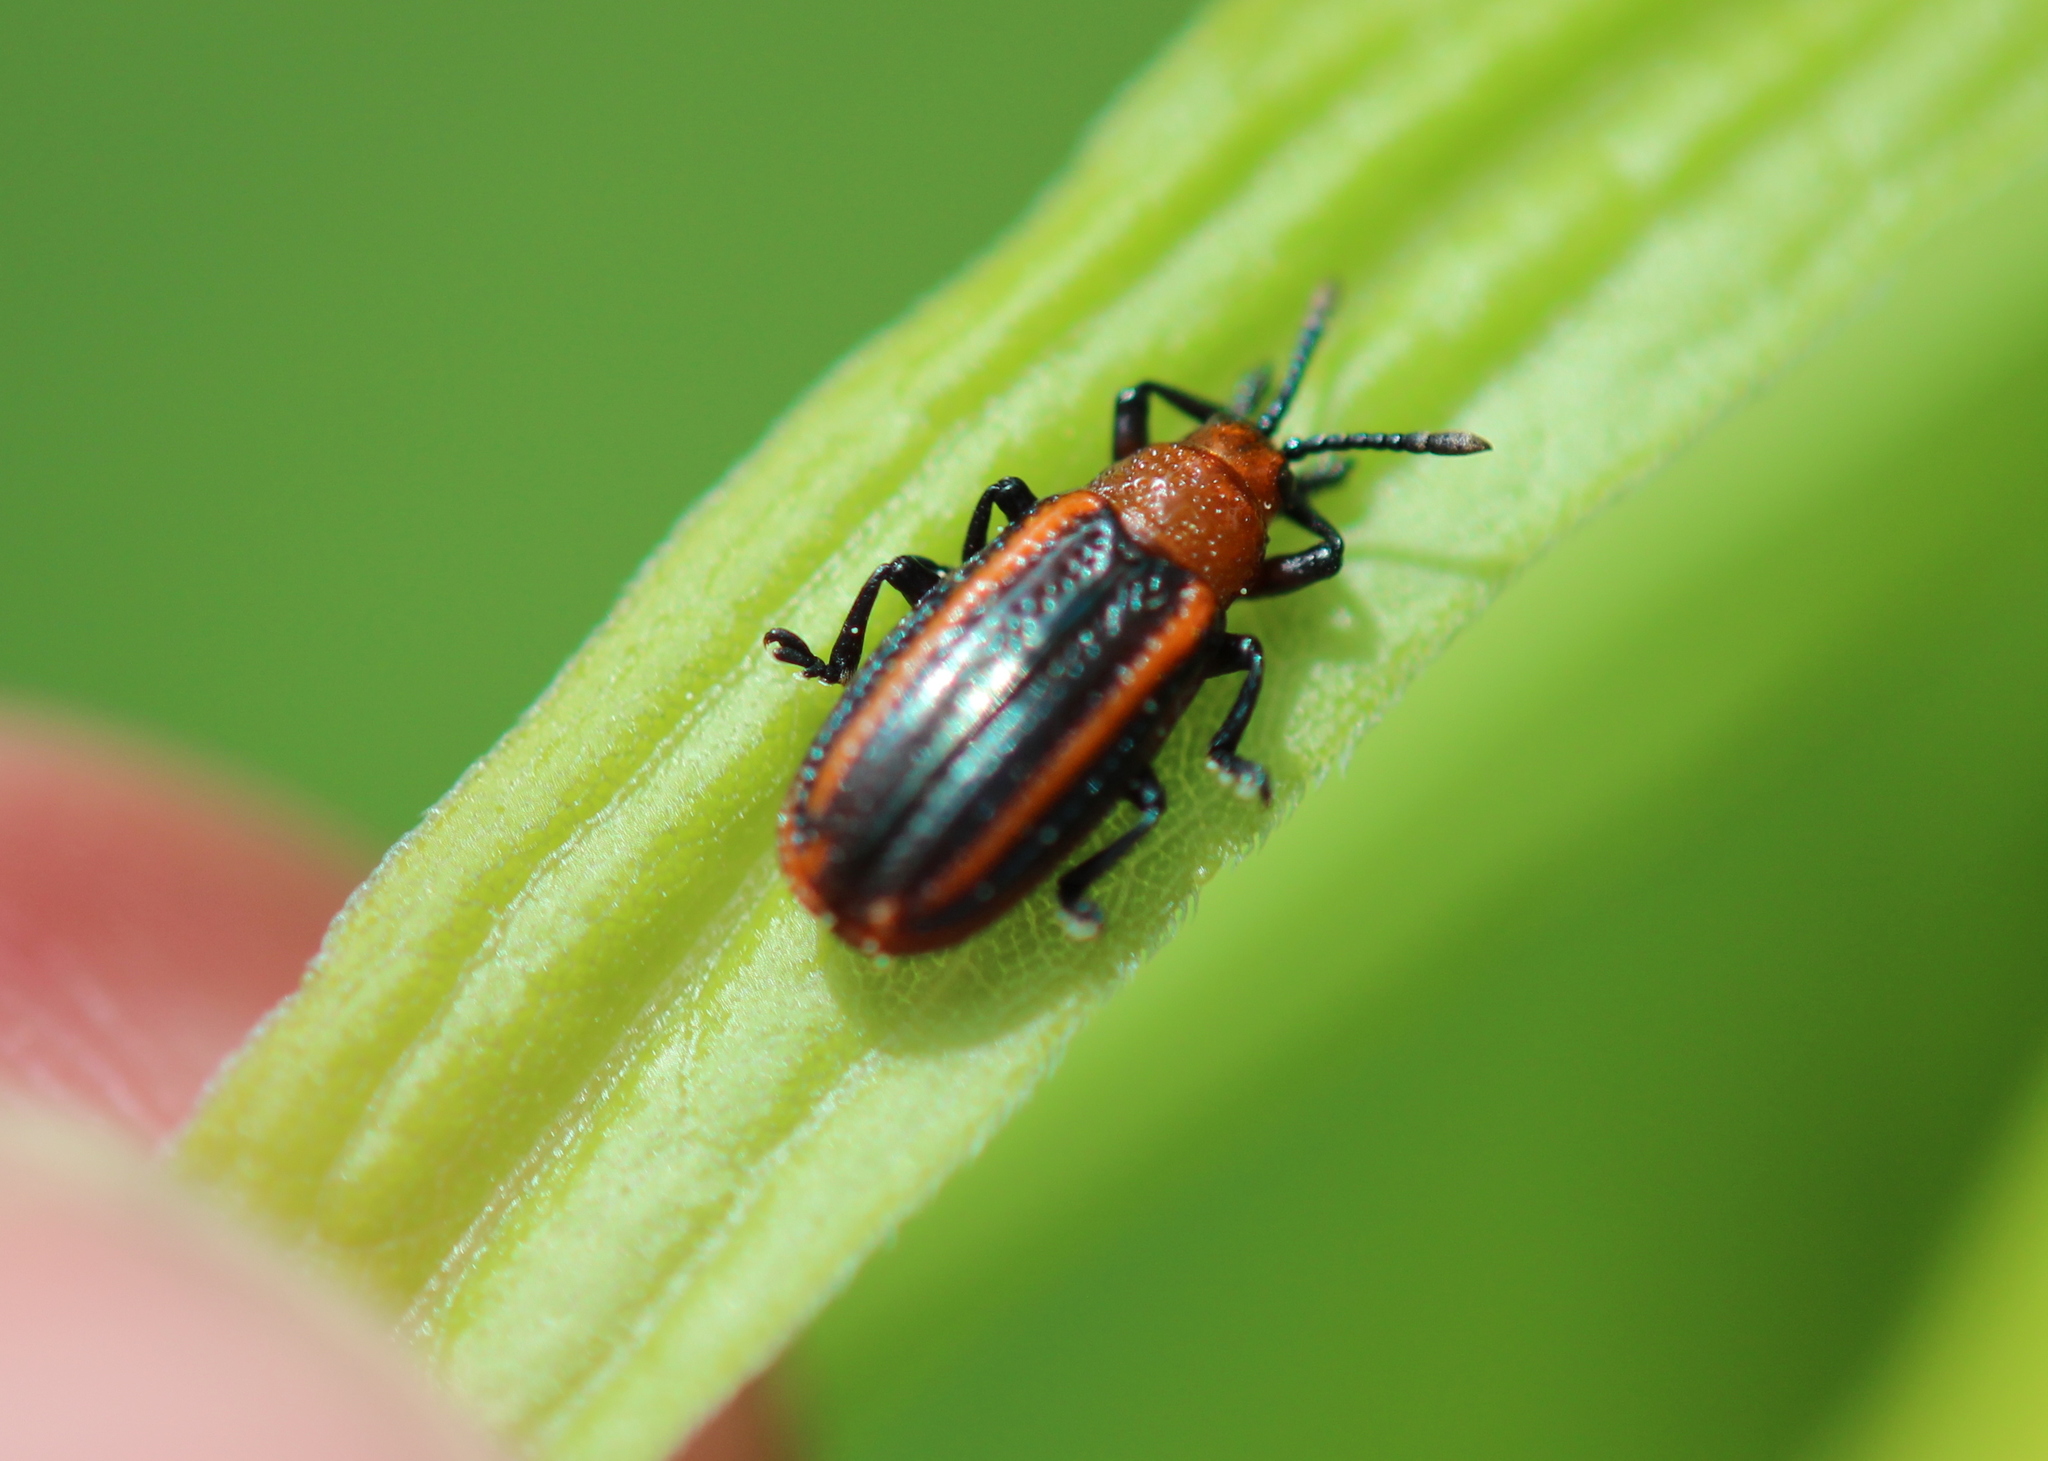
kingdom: Animalia
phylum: Arthropoda
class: Insecta
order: Coleoptera
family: Chrysomelidae
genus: Microrhopala
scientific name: Microrhopala vittata
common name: Goldenrod leaf miner beetle
